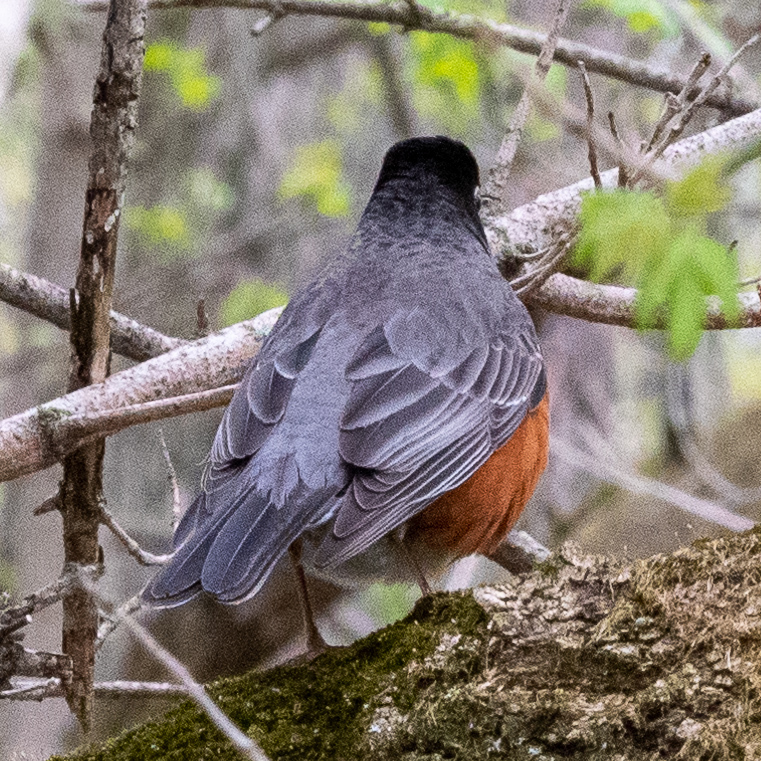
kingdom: Animalia
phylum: Chordata
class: Aves
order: Passeriformes
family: Turdidae
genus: Turdus
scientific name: Turdus migratorius
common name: American robin
